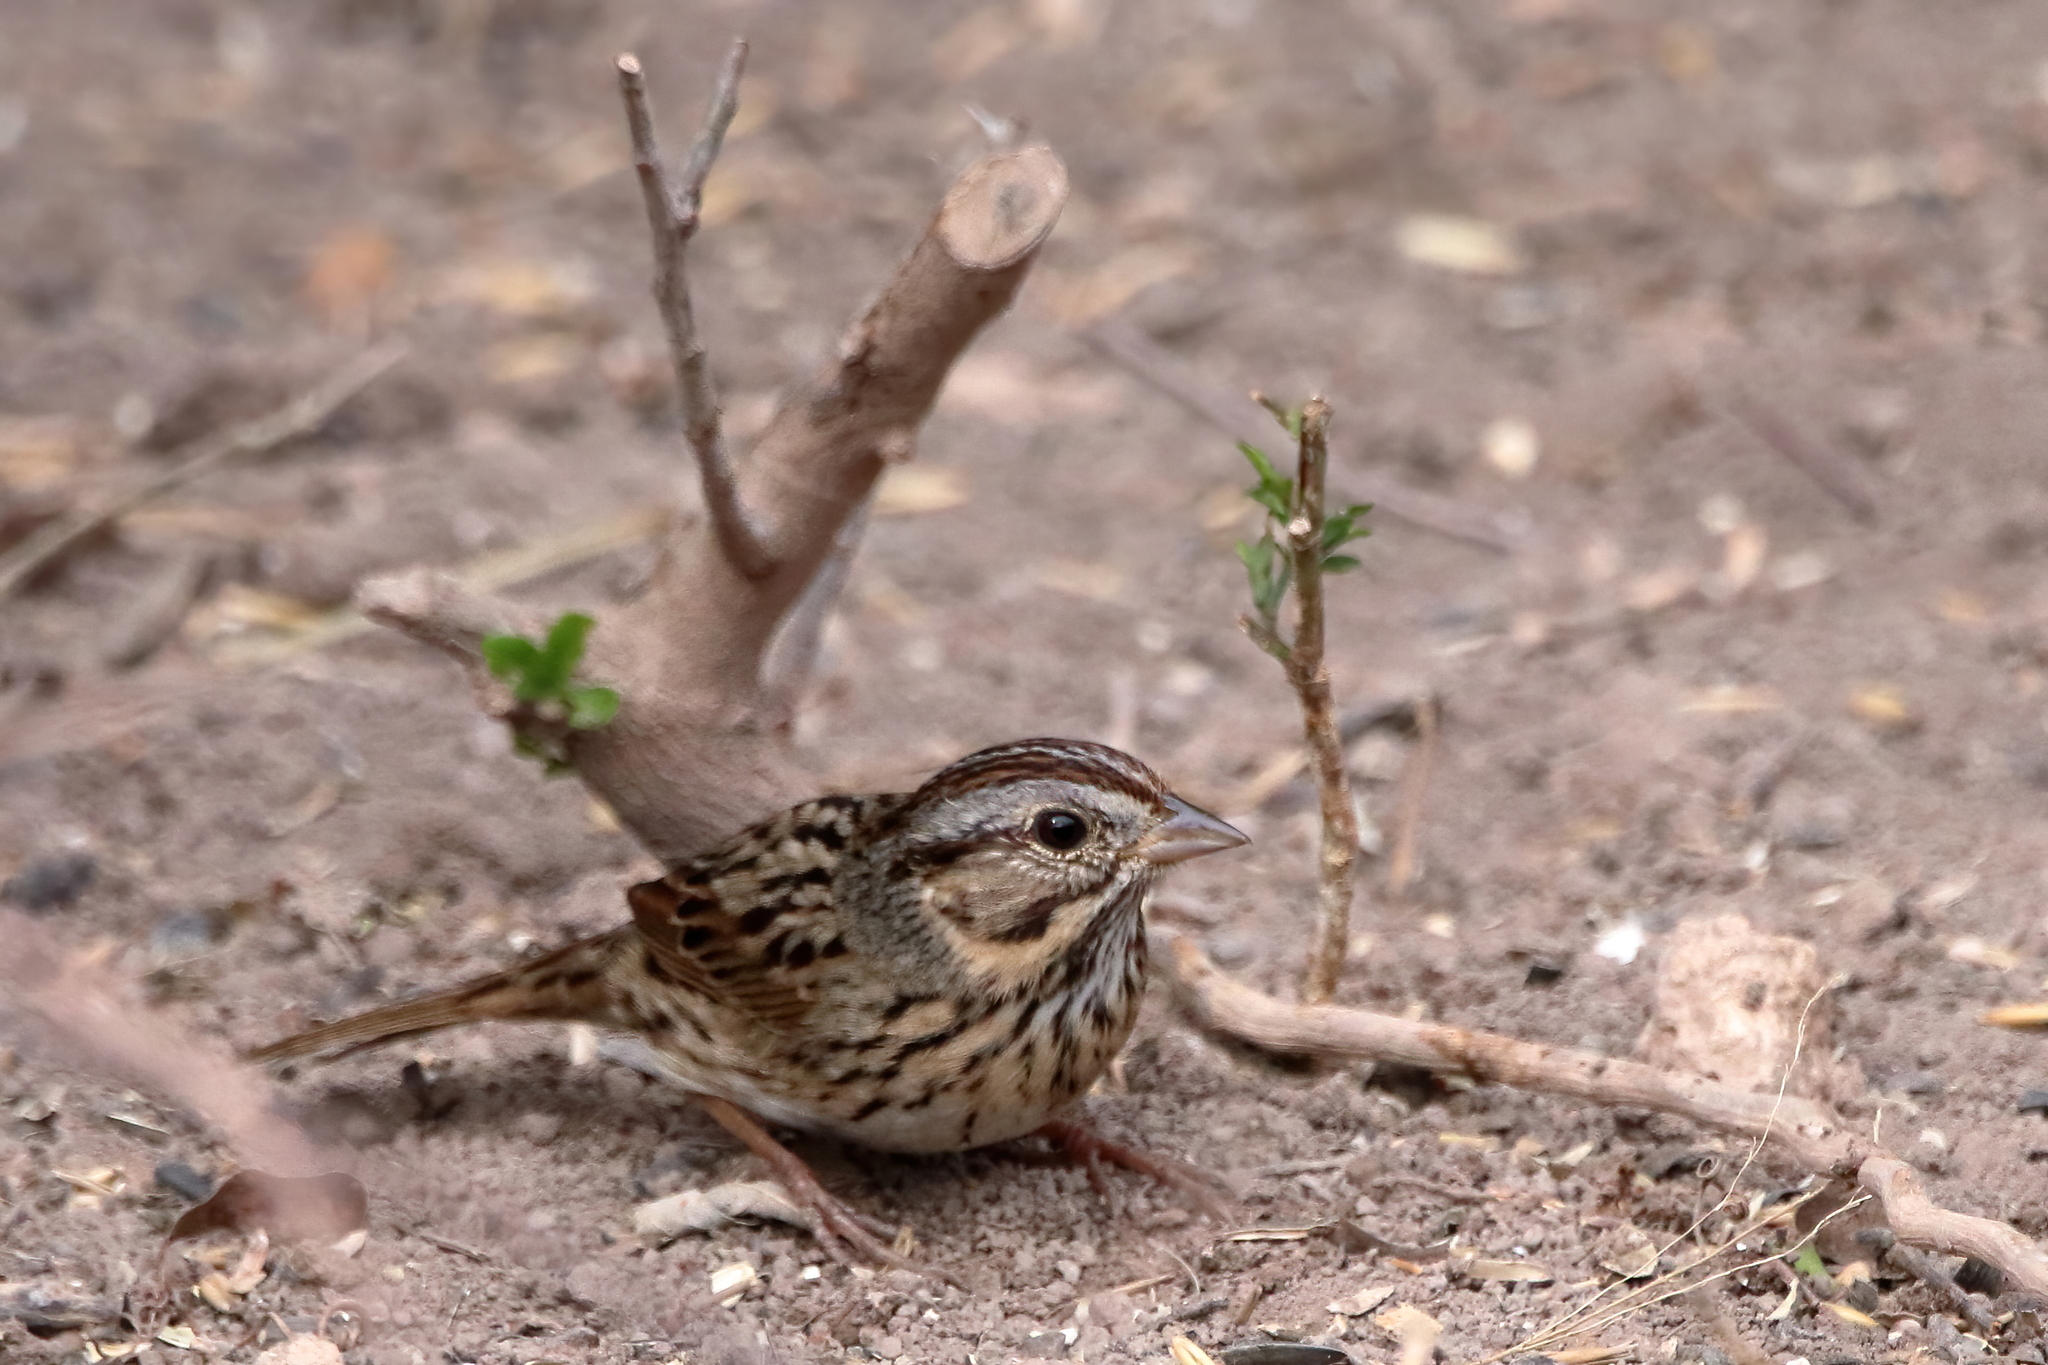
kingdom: Animalia
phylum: Chordata
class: Aves
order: Passeriformes
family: Passerellidae
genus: Melospiza
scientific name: Melospiza lincolnii
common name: Lincoln's sparrow
